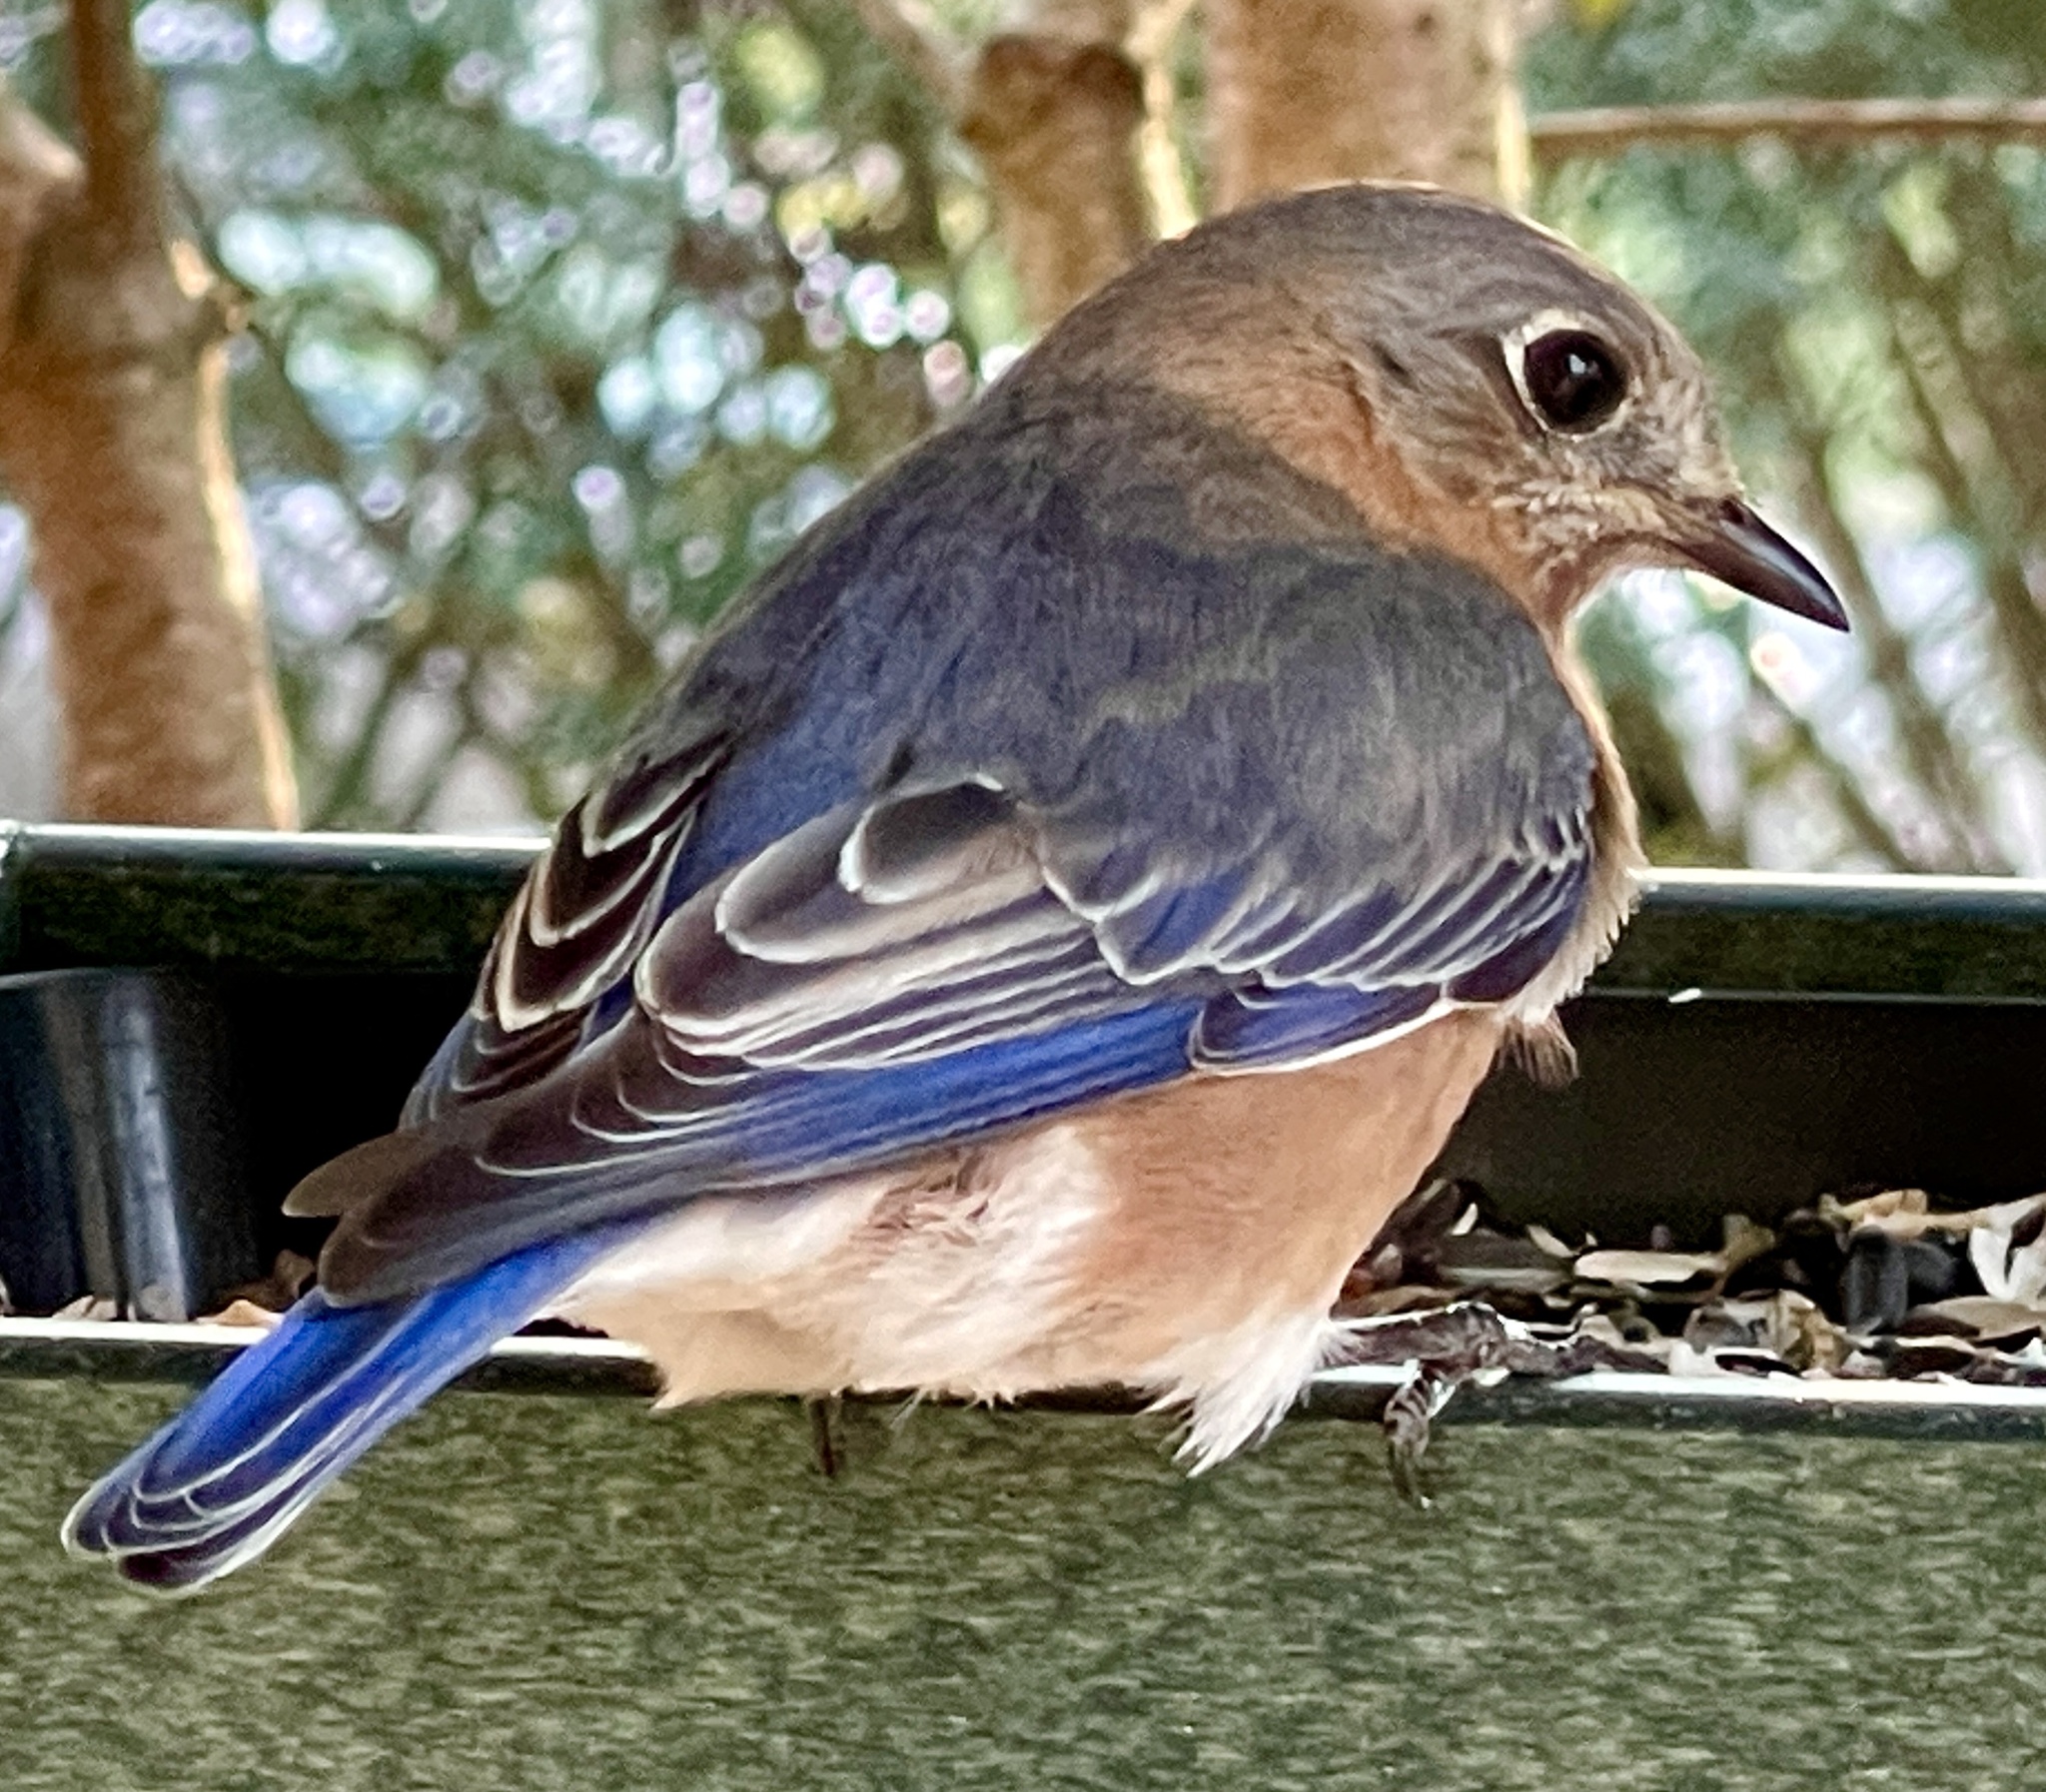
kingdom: Animalia
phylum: Chordata
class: Aves
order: Passeriformes
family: Turdidae
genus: Sialia
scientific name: Sialia sialis
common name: Eastern bluebird
